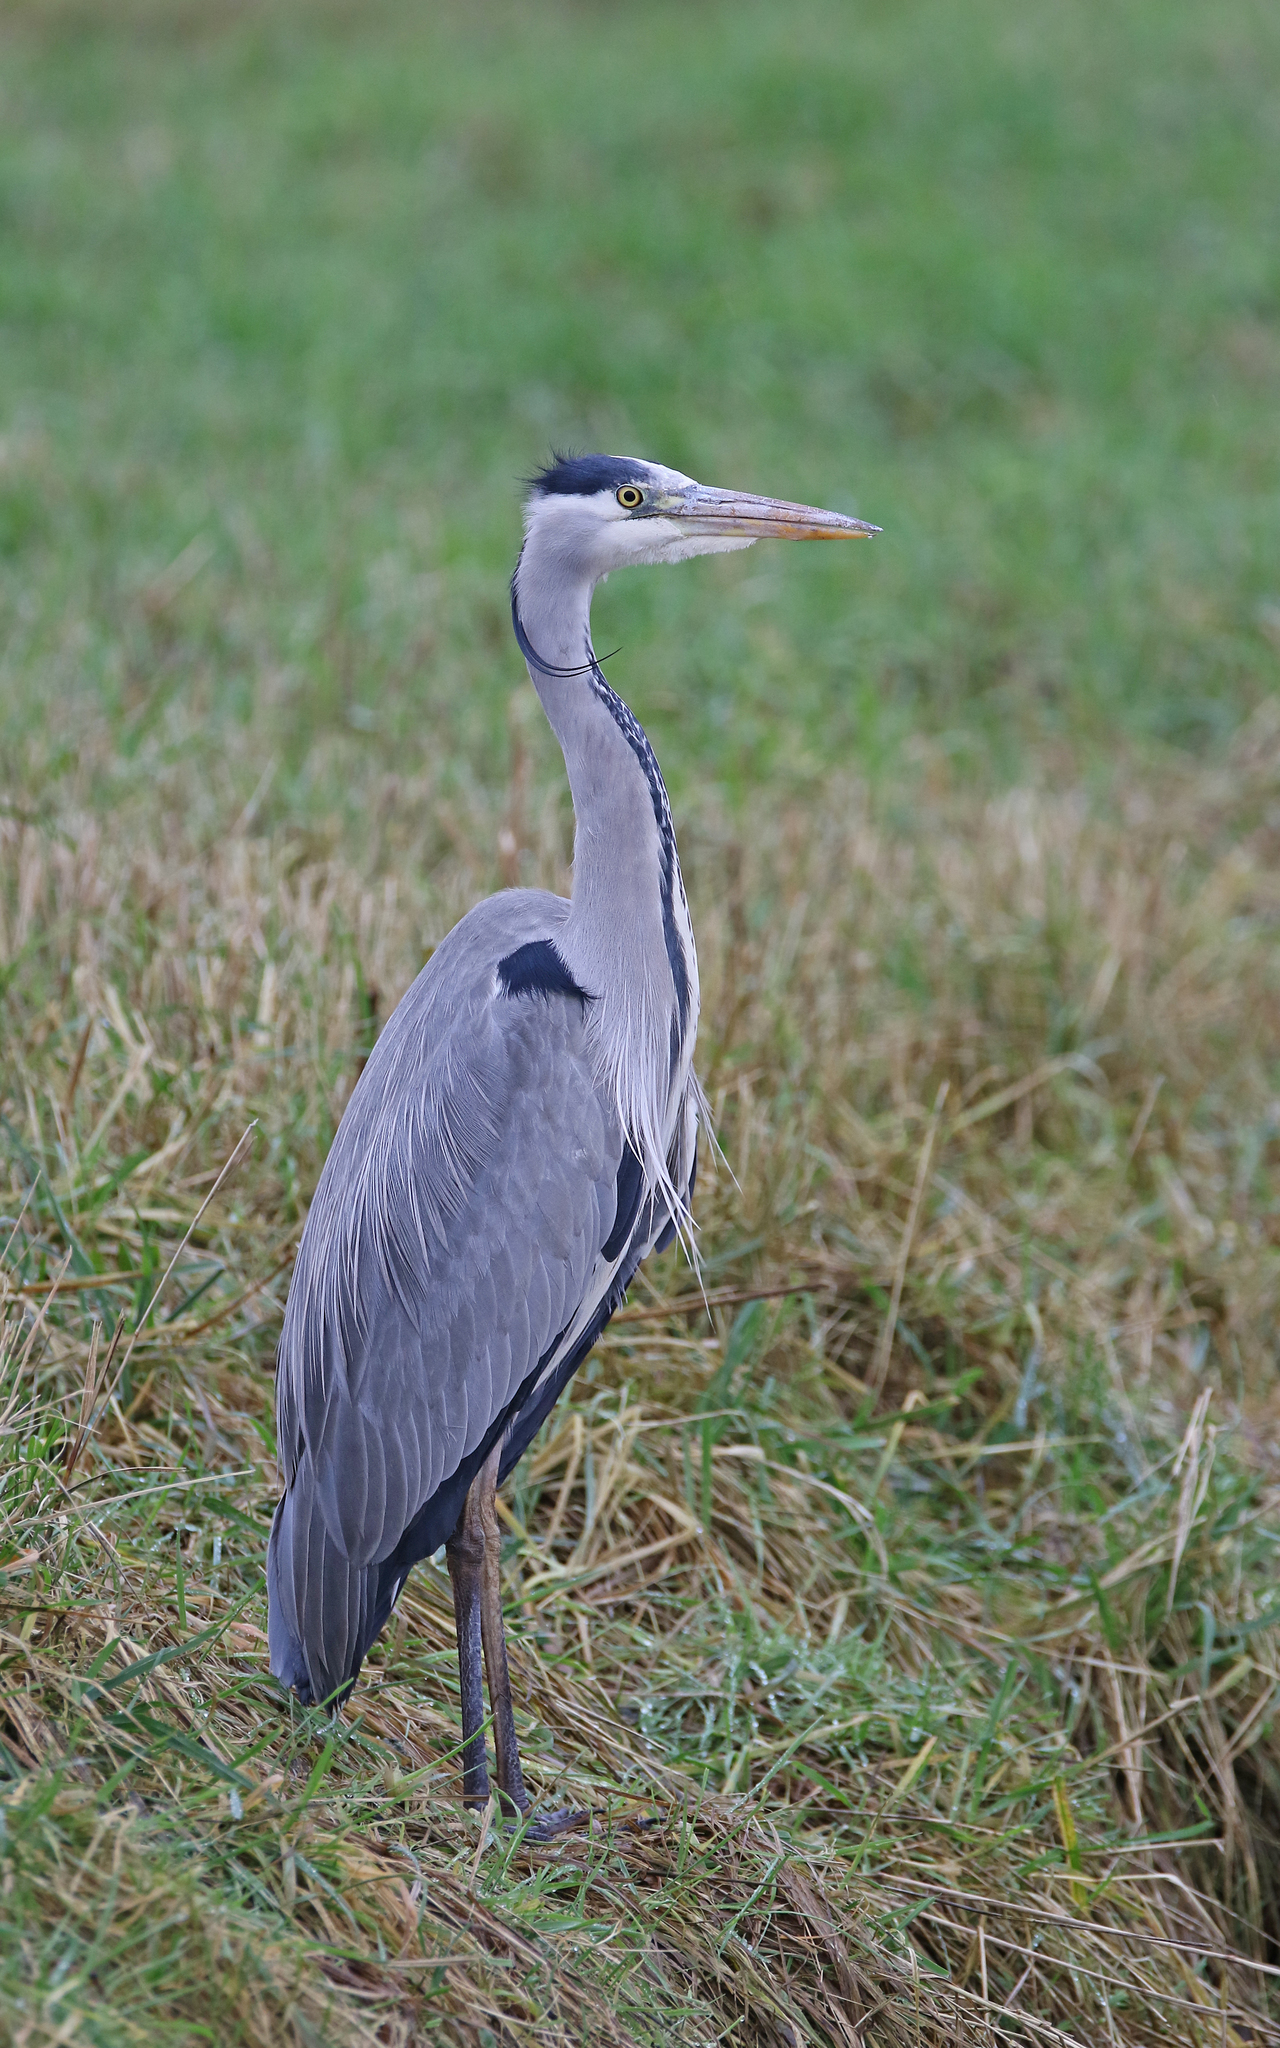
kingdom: Animalia
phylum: Chordata
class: Aves
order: Pelecaniformes
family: Ardeidae
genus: Ardea
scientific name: Ardea cinerea
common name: Grey heron
